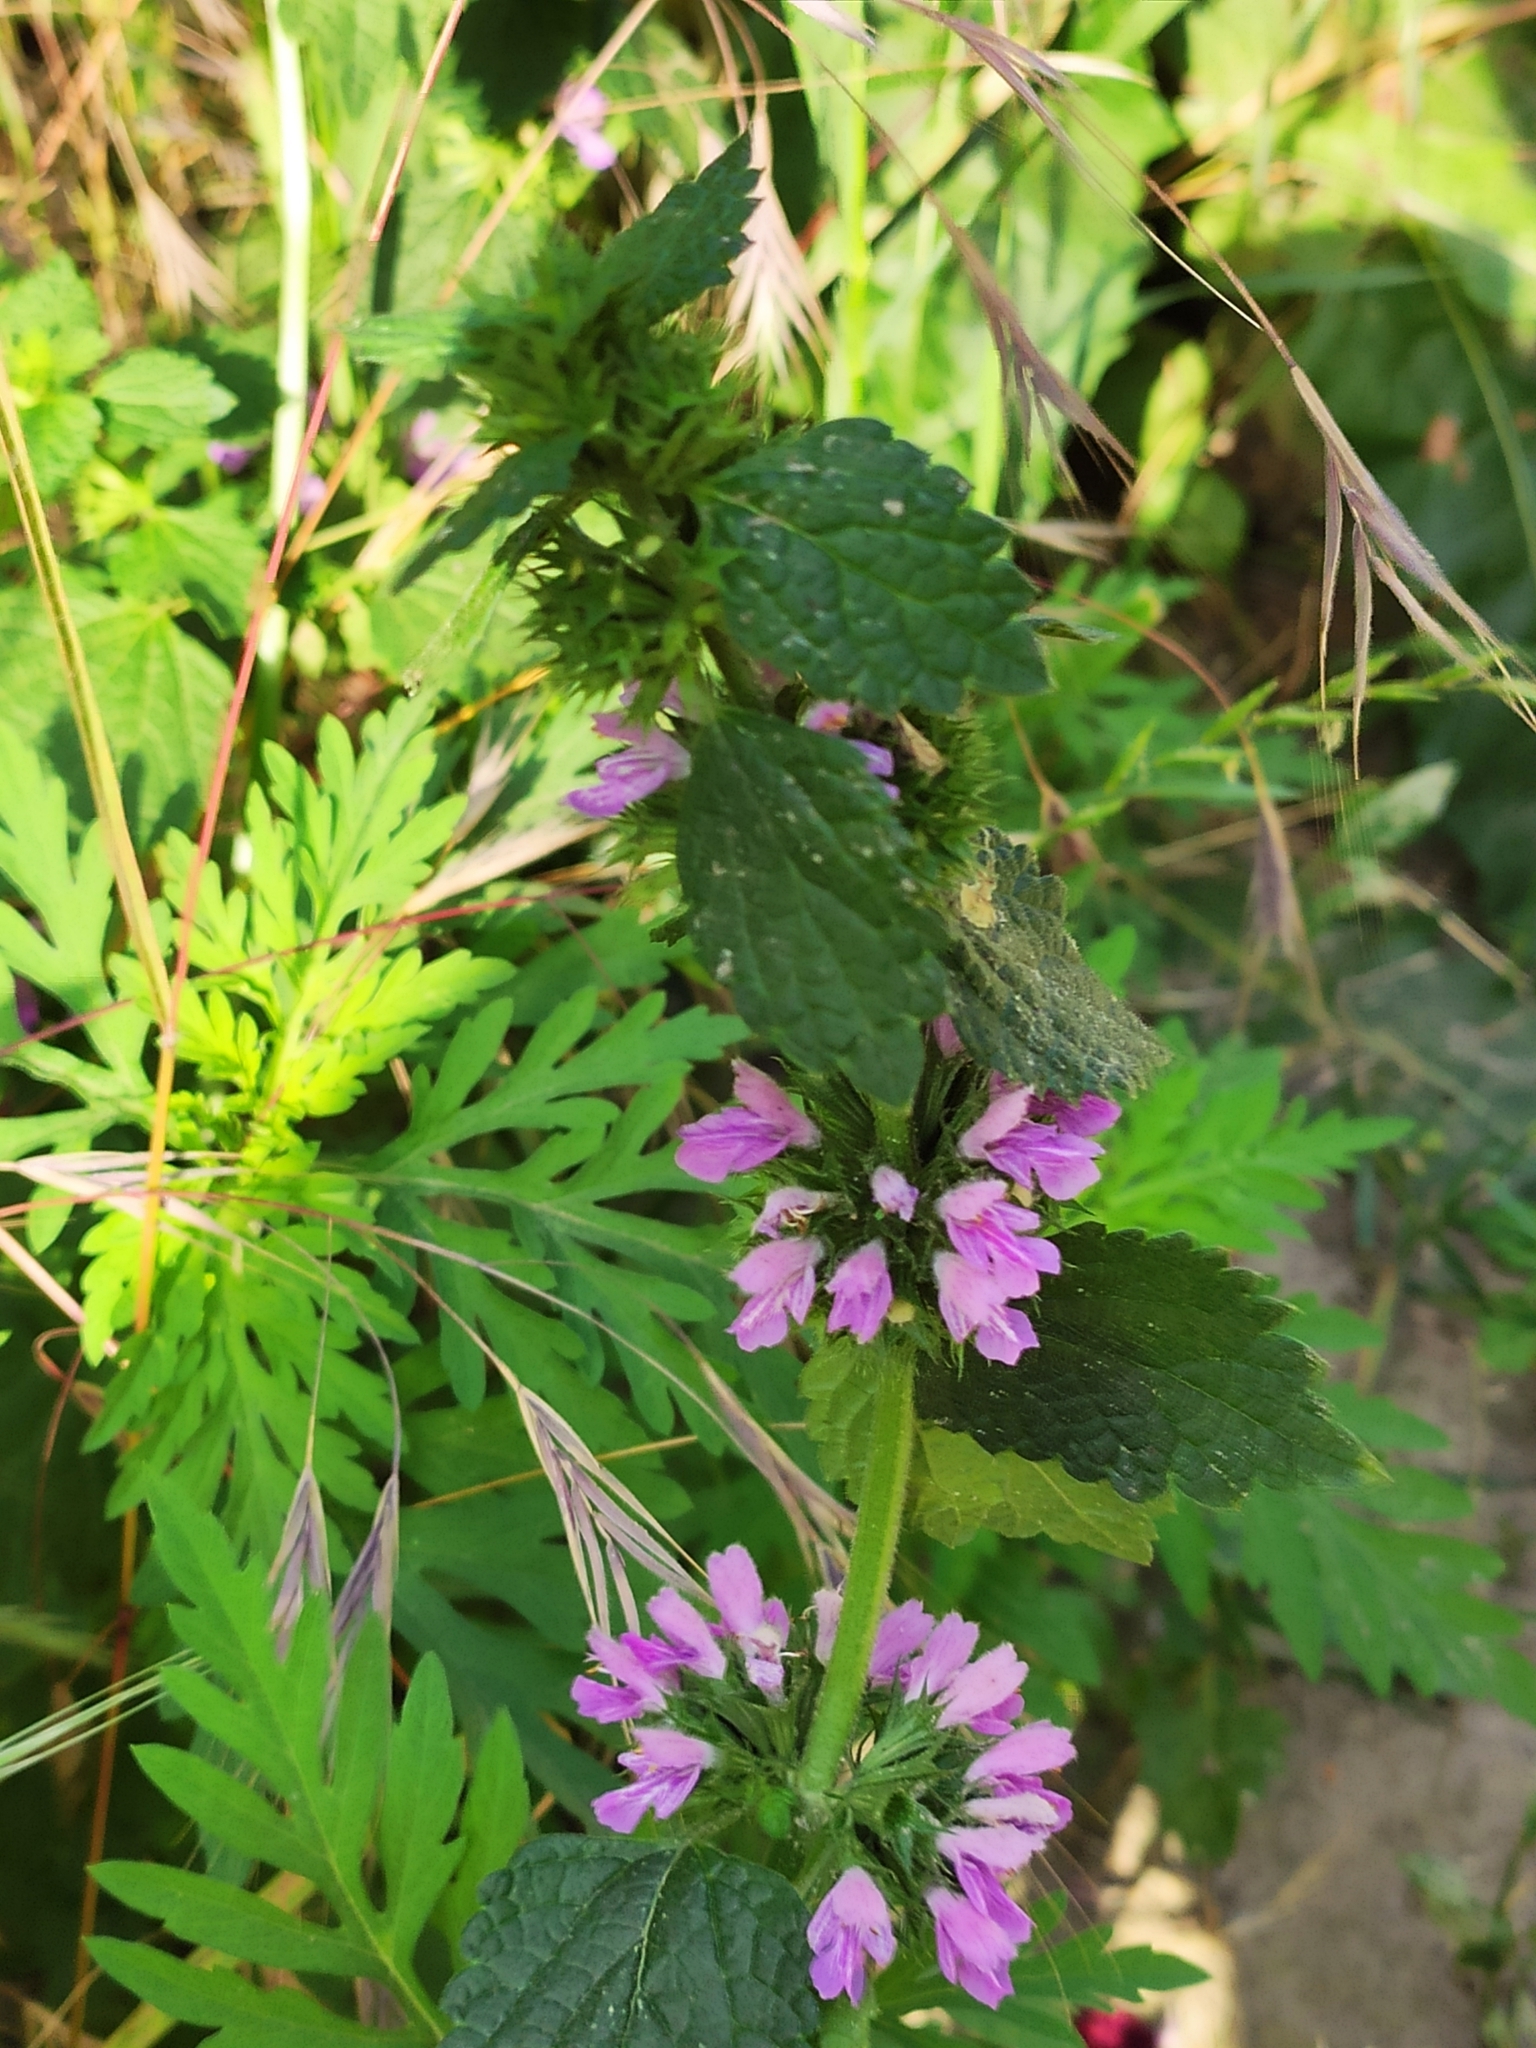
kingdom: Plantae
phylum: Tracheophyta
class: Magnoliopsida
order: Lamiales
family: Lamiaceae
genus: Ballota
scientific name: Ballota nigra
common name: Black horehound
